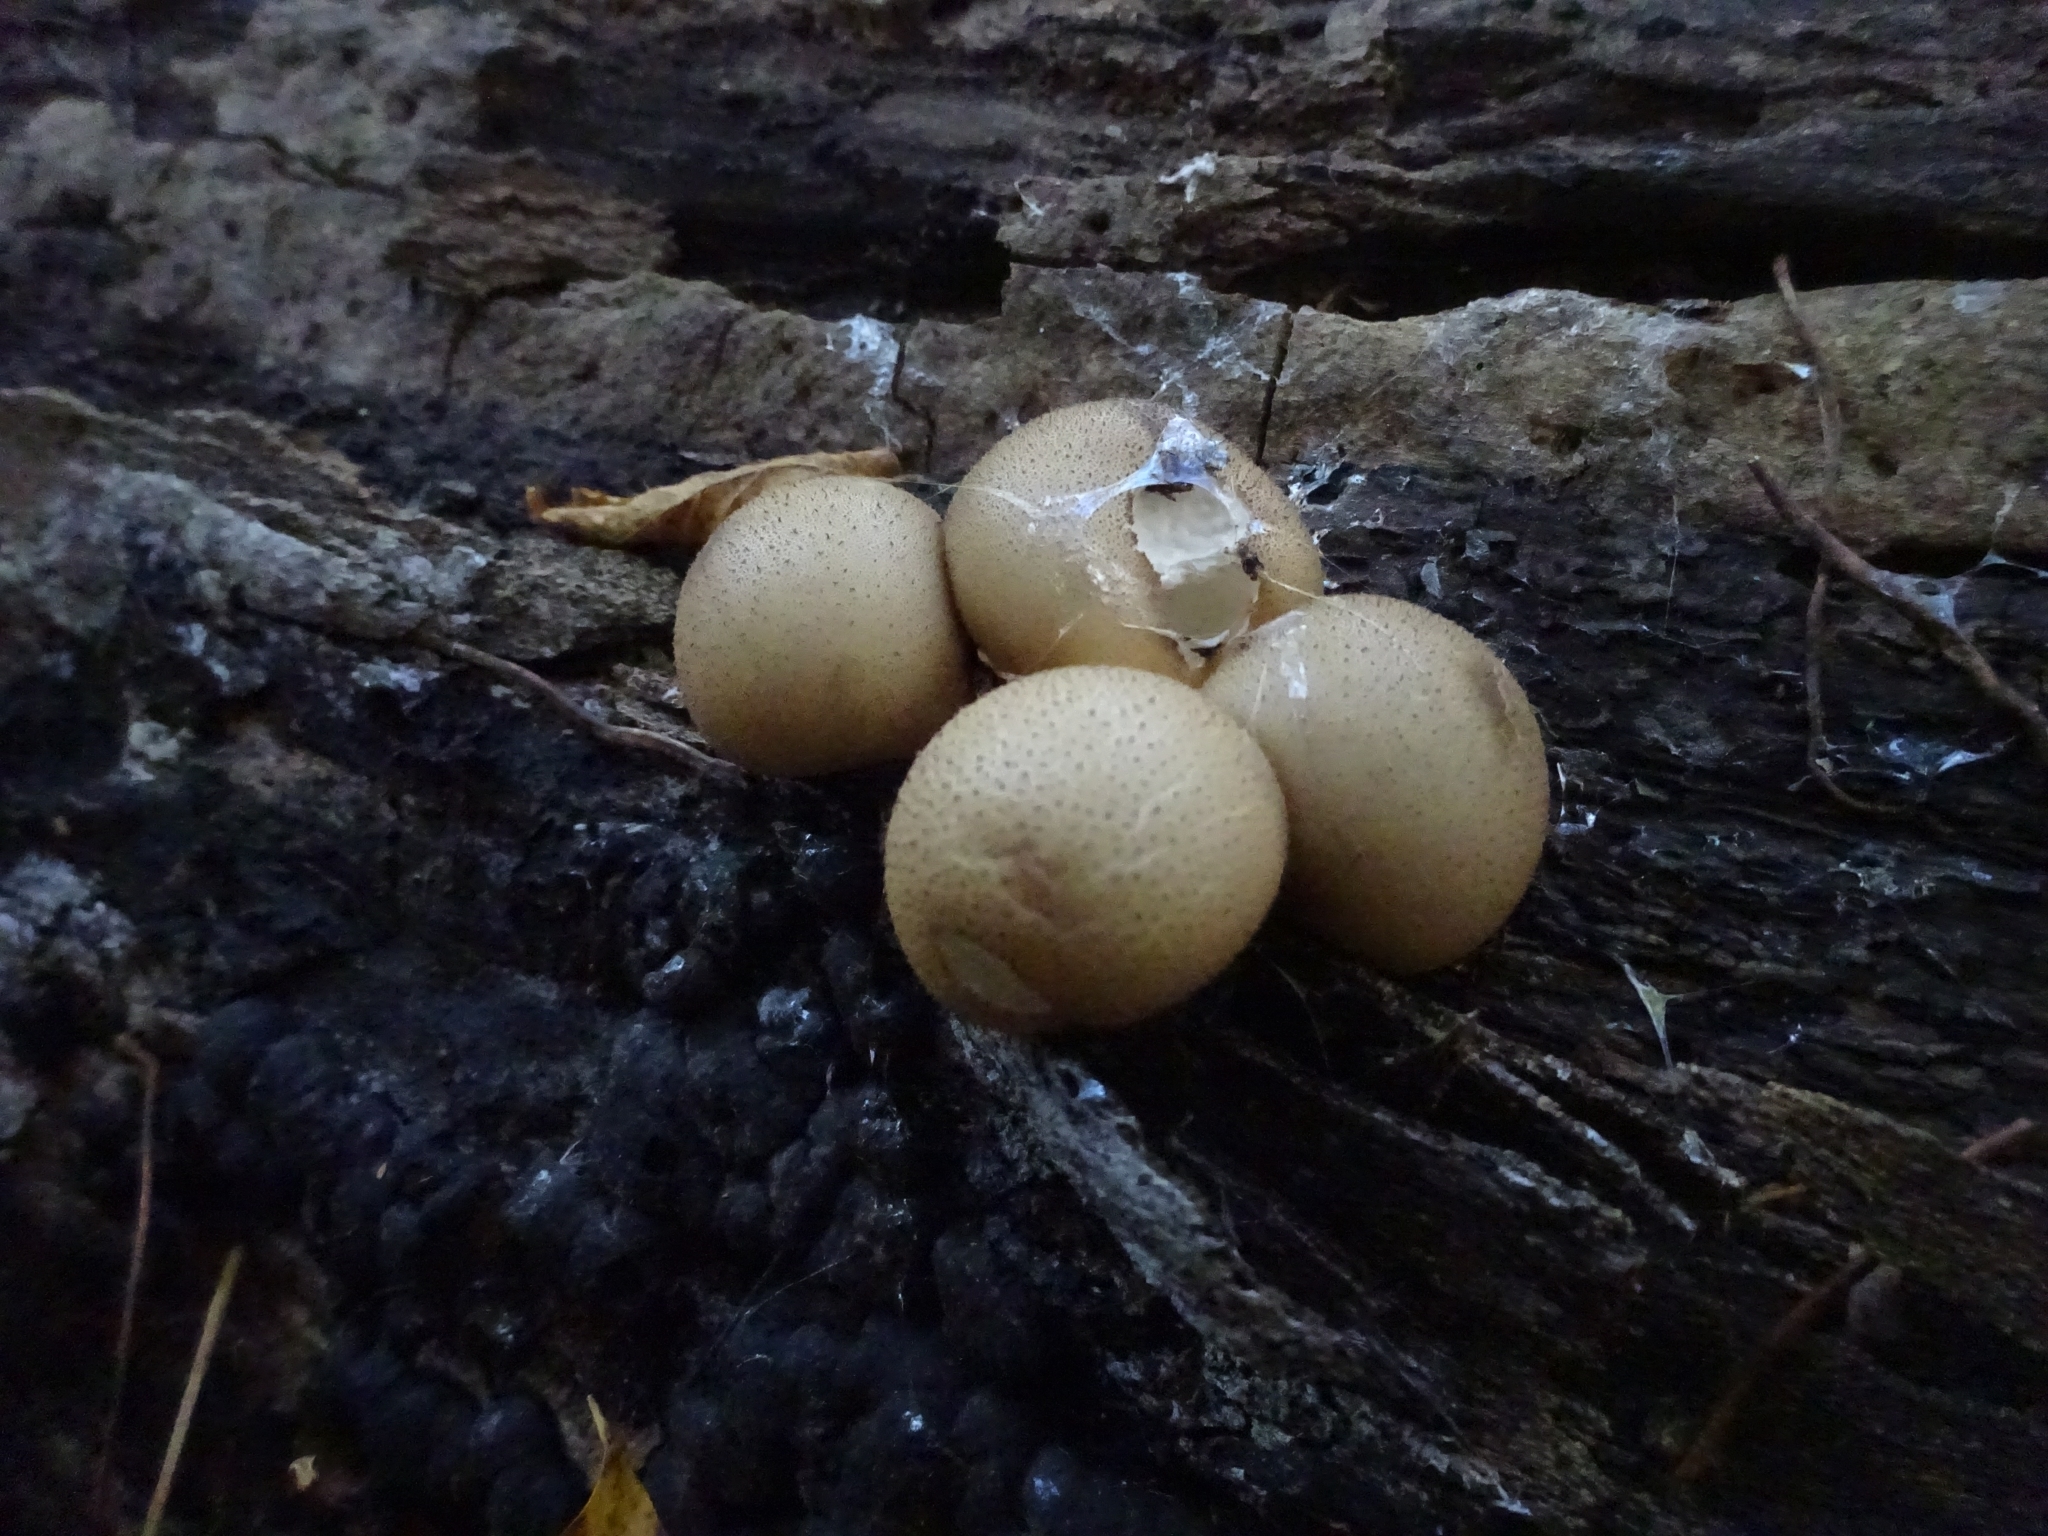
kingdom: Fungi
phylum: Basidiomycota
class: Agaricomycetes
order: Agaricales
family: Lycoperdaceae
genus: Apioperdon
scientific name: Apioperdon pyriforme
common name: Pear-shaped puffball
